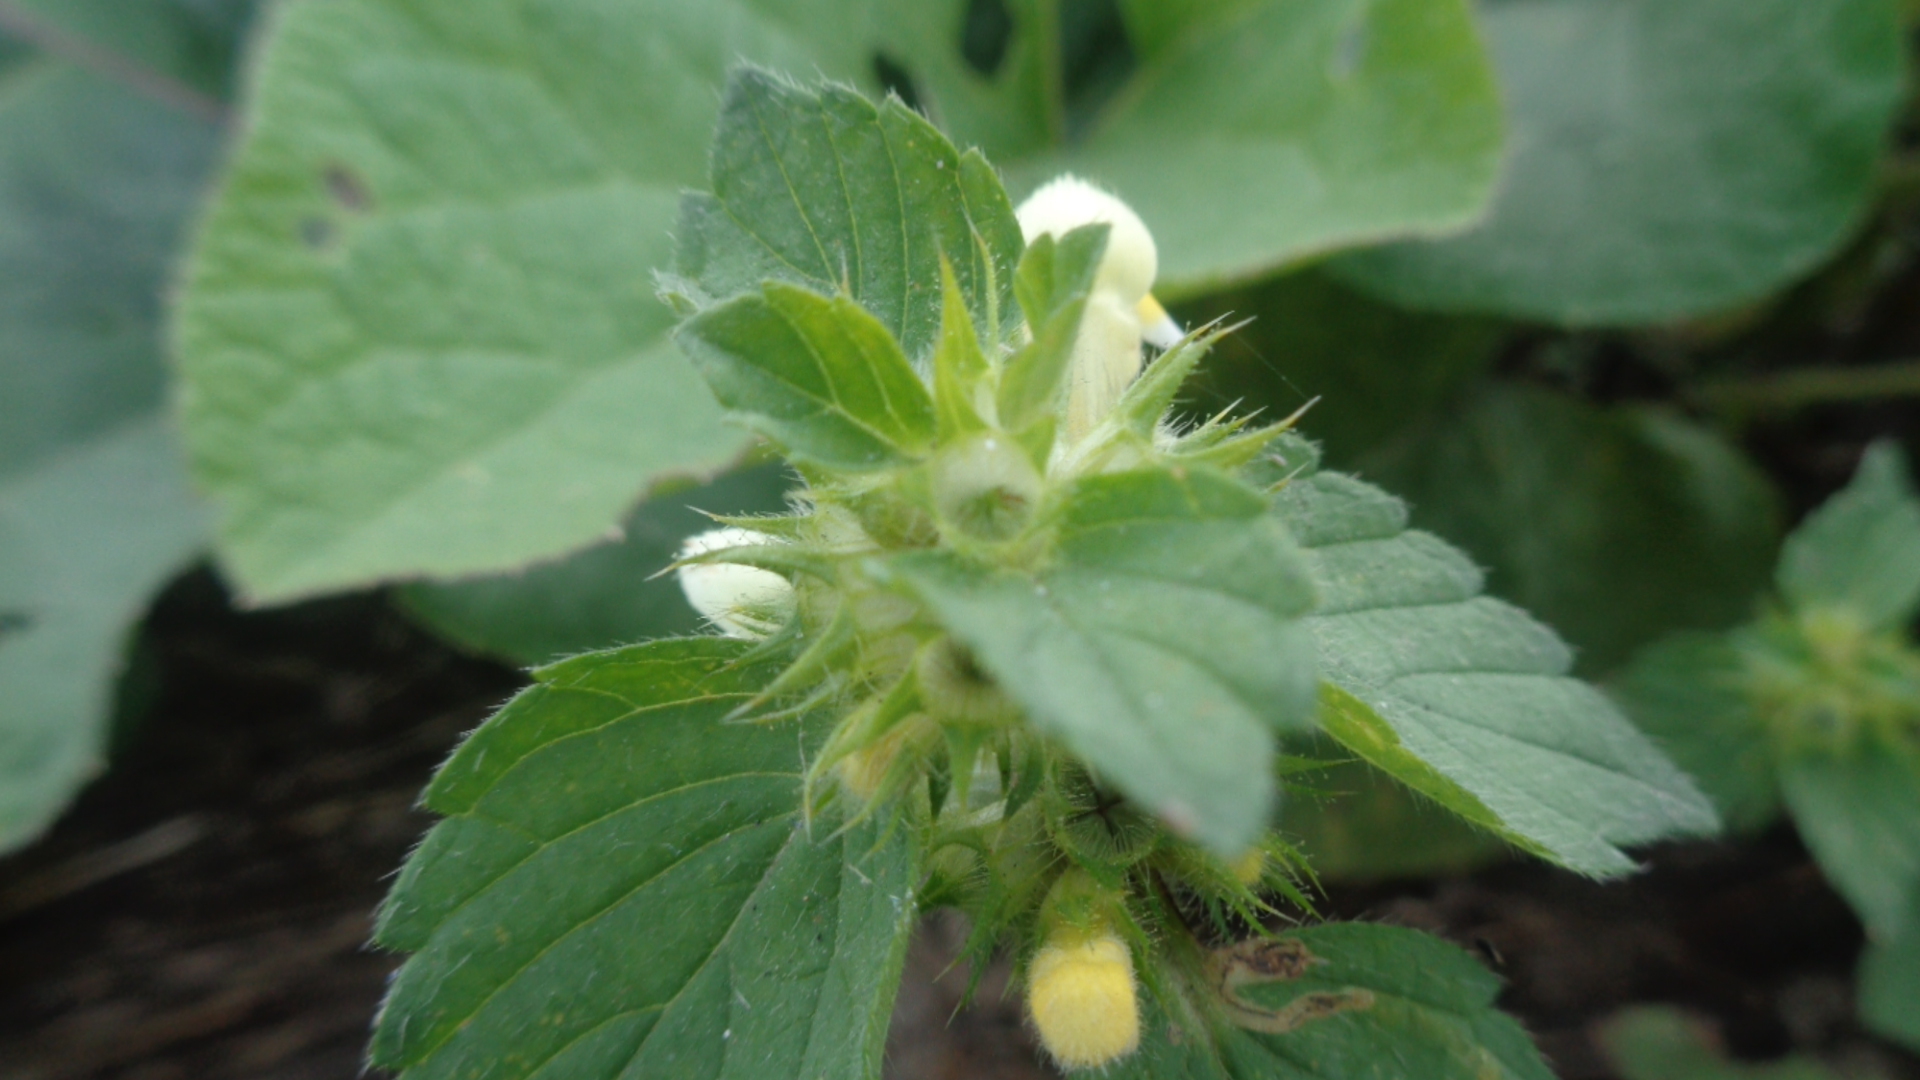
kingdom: Plantae
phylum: Tracheophyta
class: Magnoliopsida
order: Lamiales
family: Lamiaceae
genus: Galeopsis
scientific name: Galeopsis speciosa
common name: Large-flowered hemp-nettle
